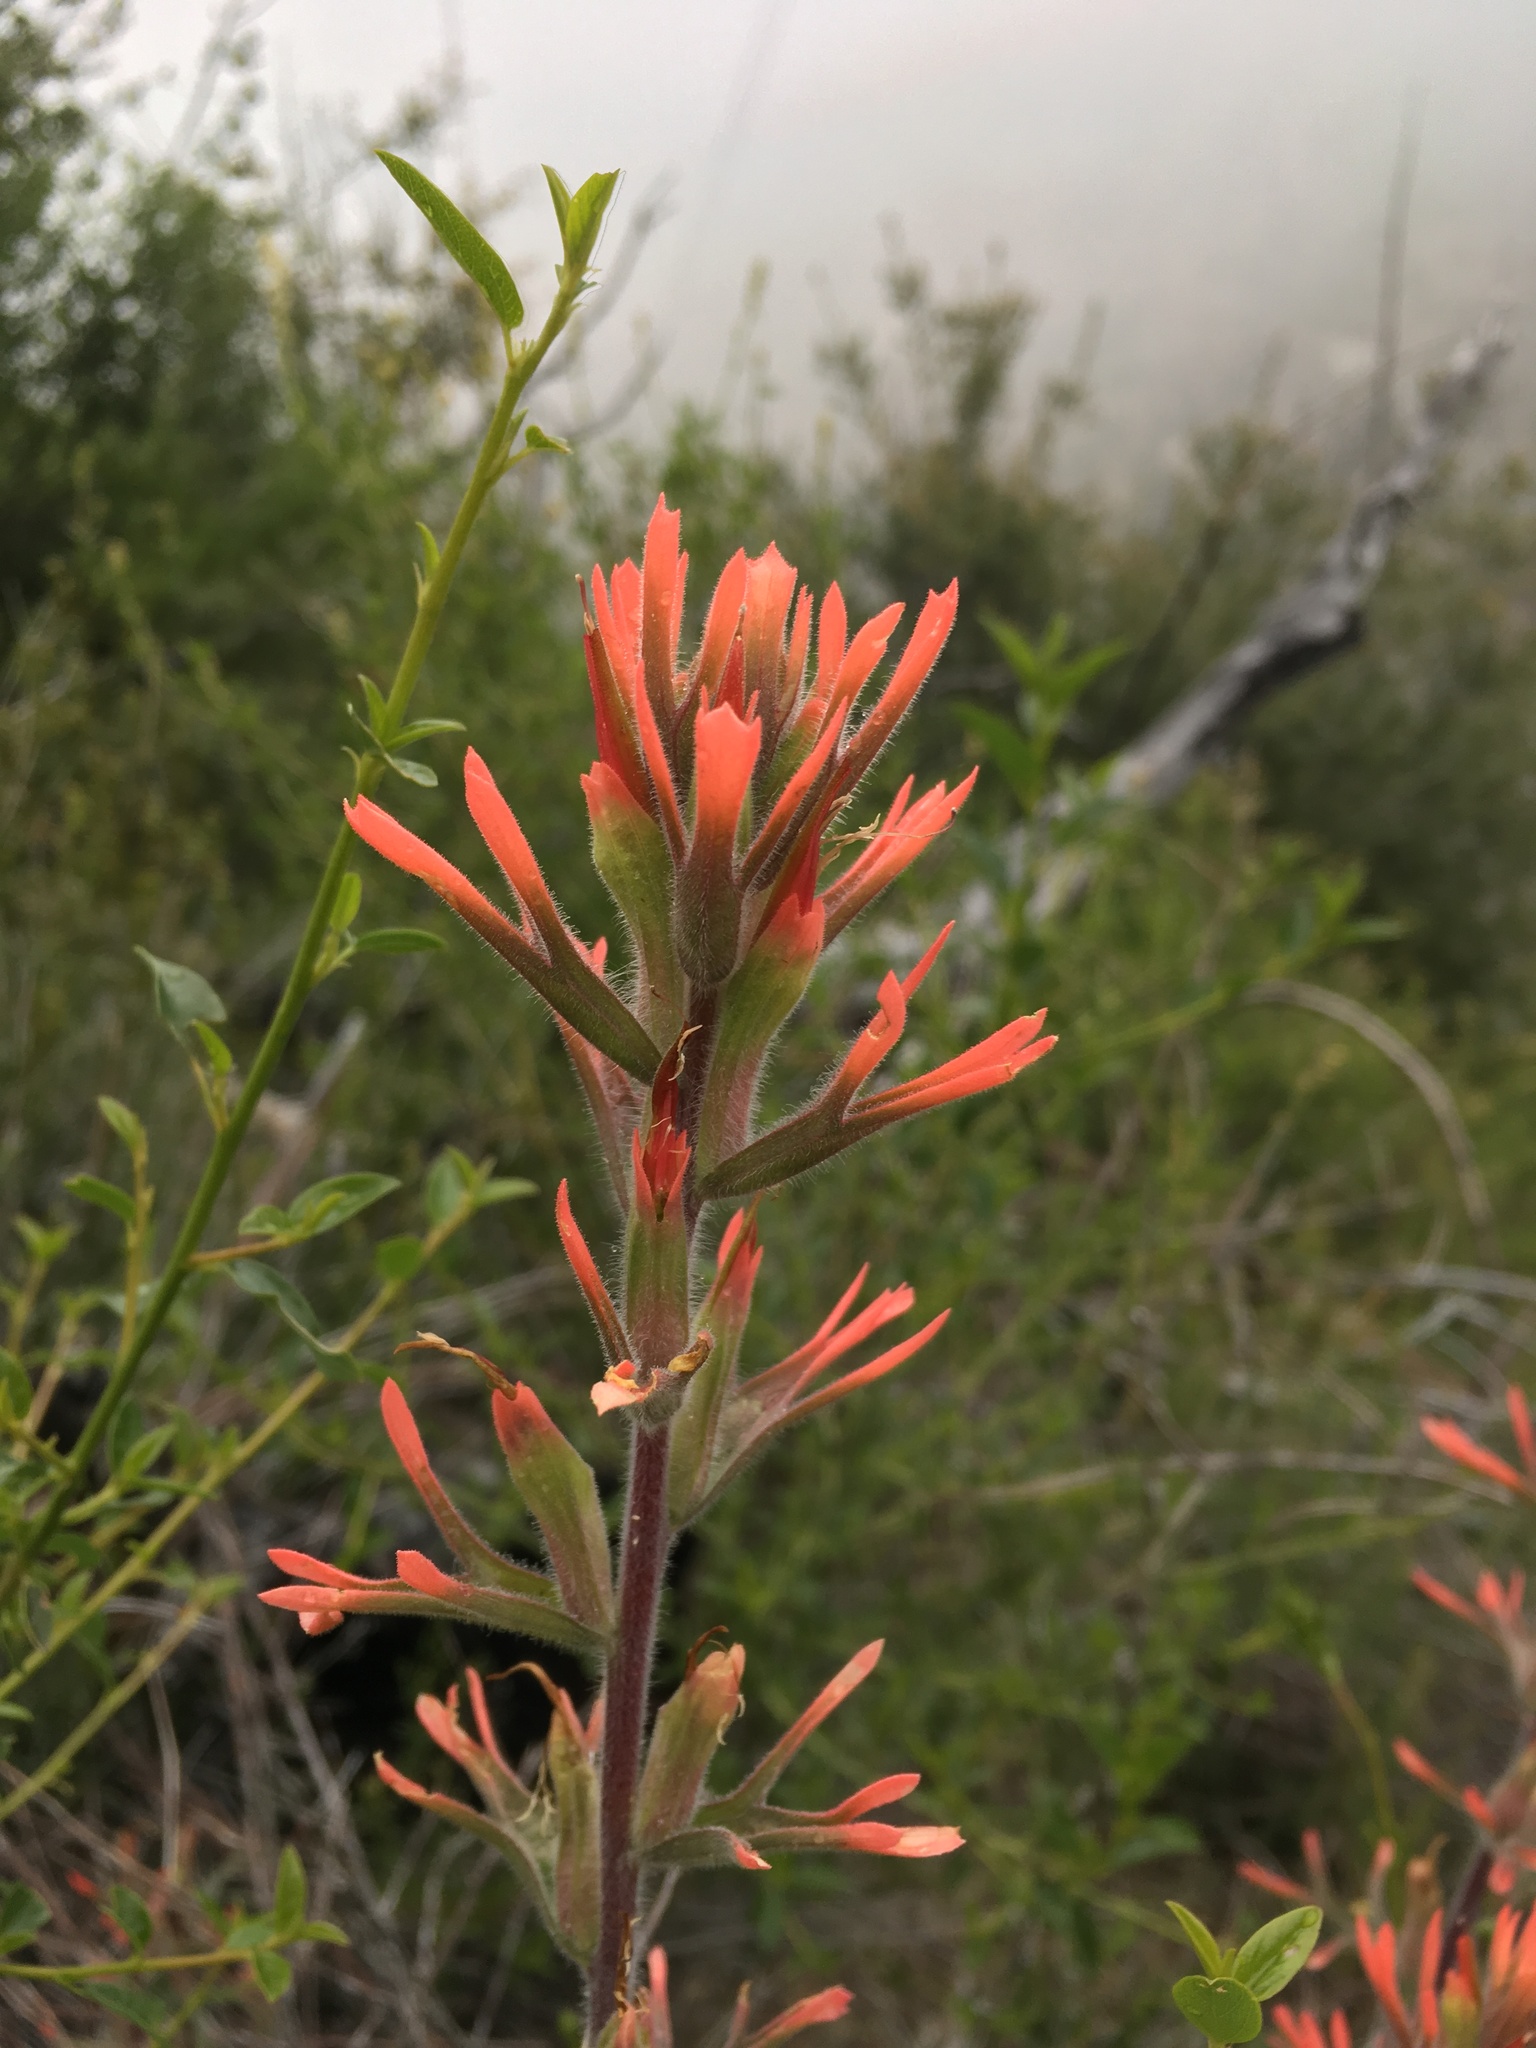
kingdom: Plantae
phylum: Tracheophyta
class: Magnoliopsida
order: Lamiales
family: Orobanchaceae
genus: Castilleja
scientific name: Castilleja gleasoni
